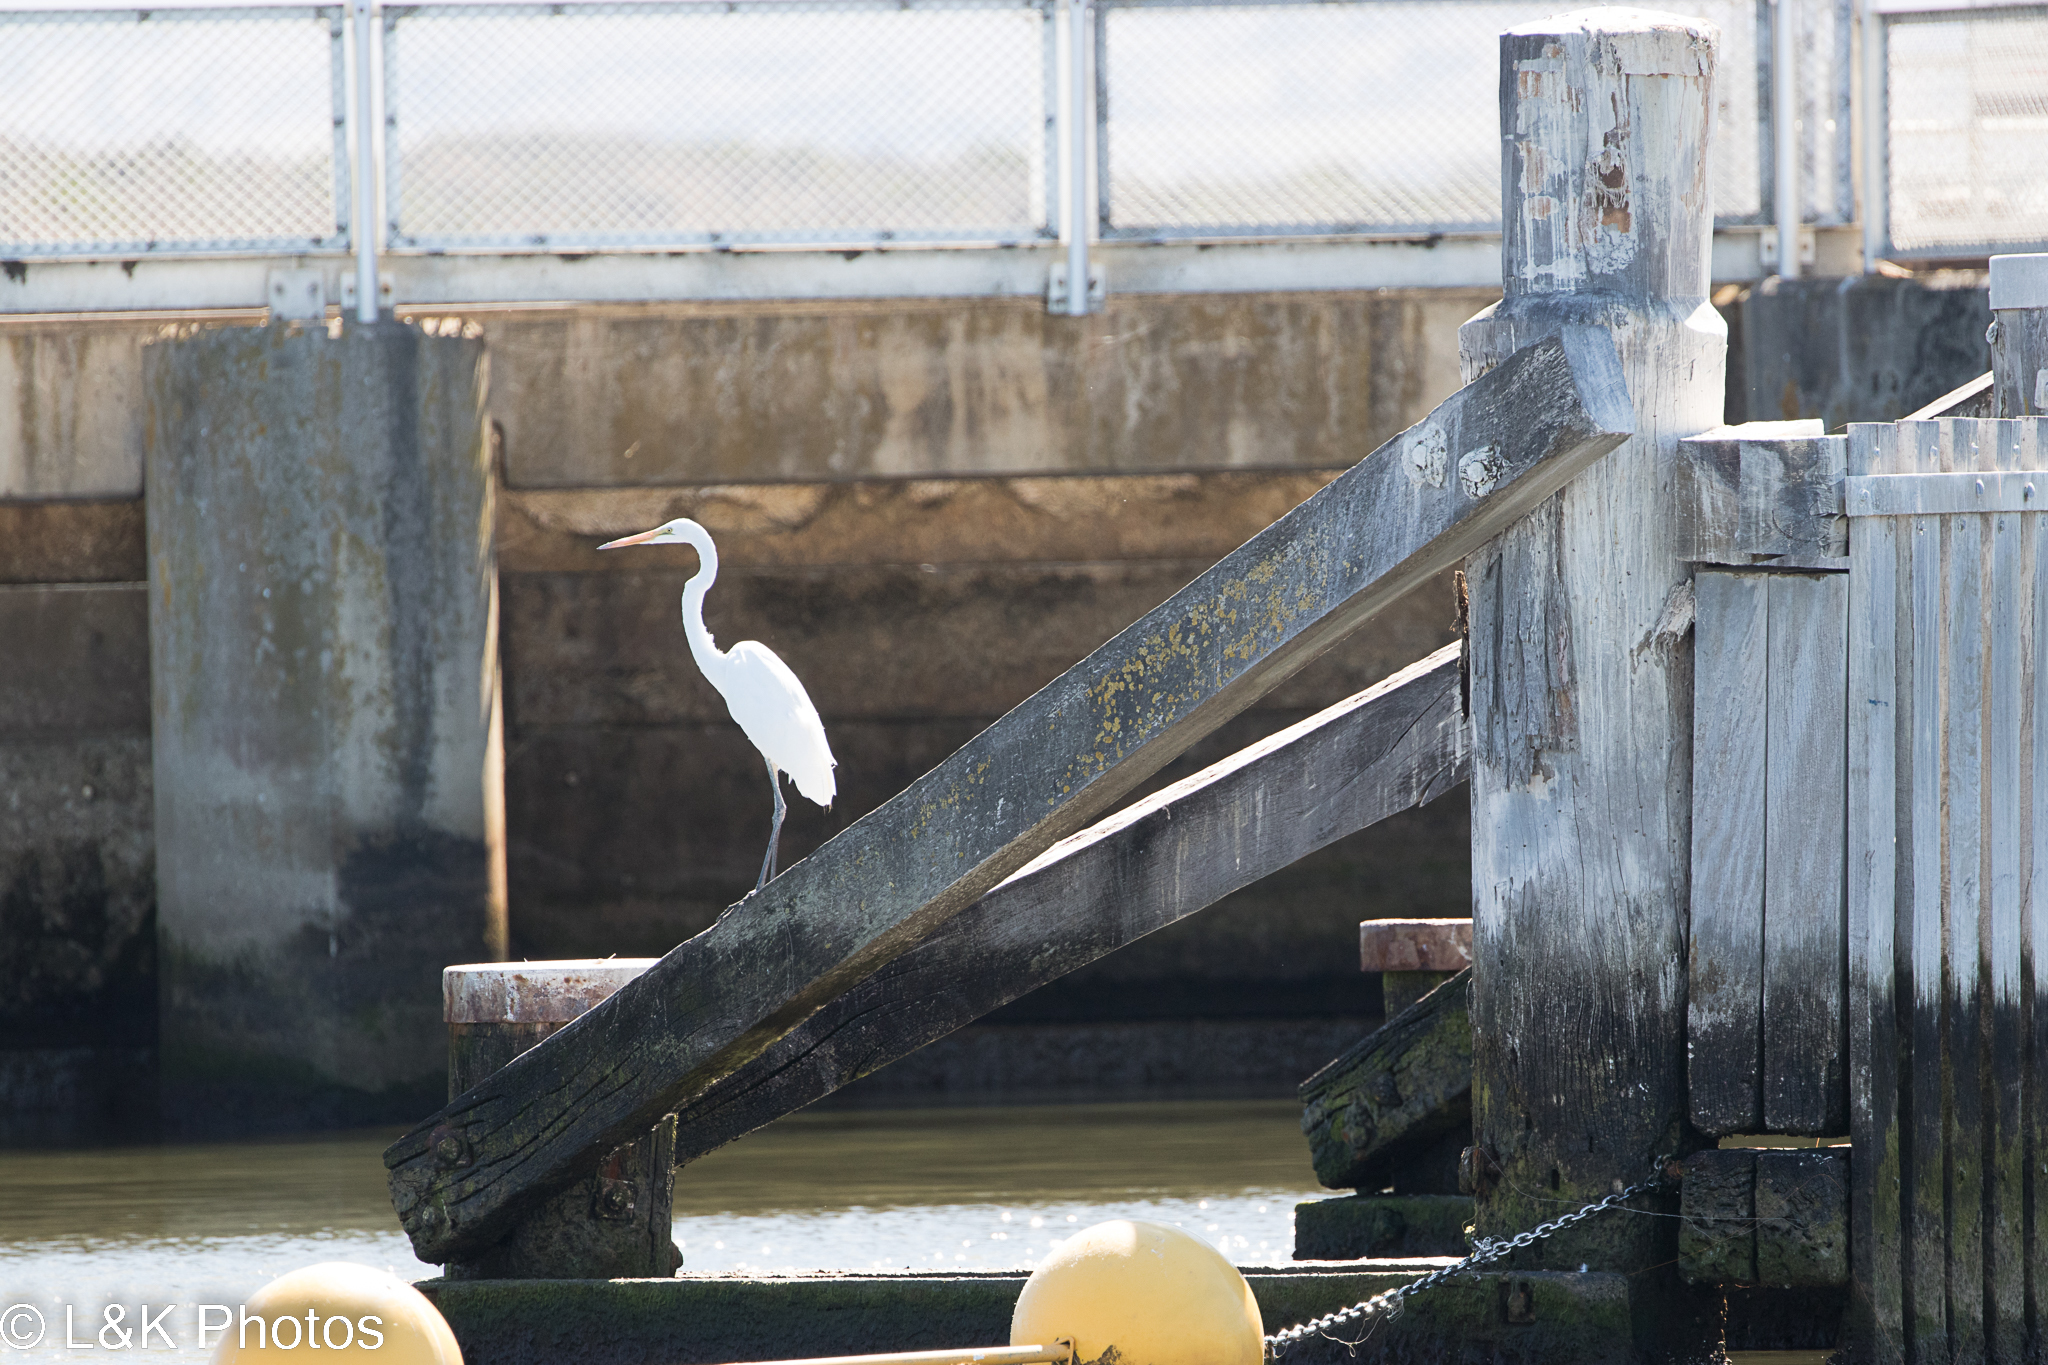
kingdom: Animalia
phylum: Chordata
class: Aves
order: Pelecaniformes
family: Ardeidae
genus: Ardea
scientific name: Ardea alba
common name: Great egret
